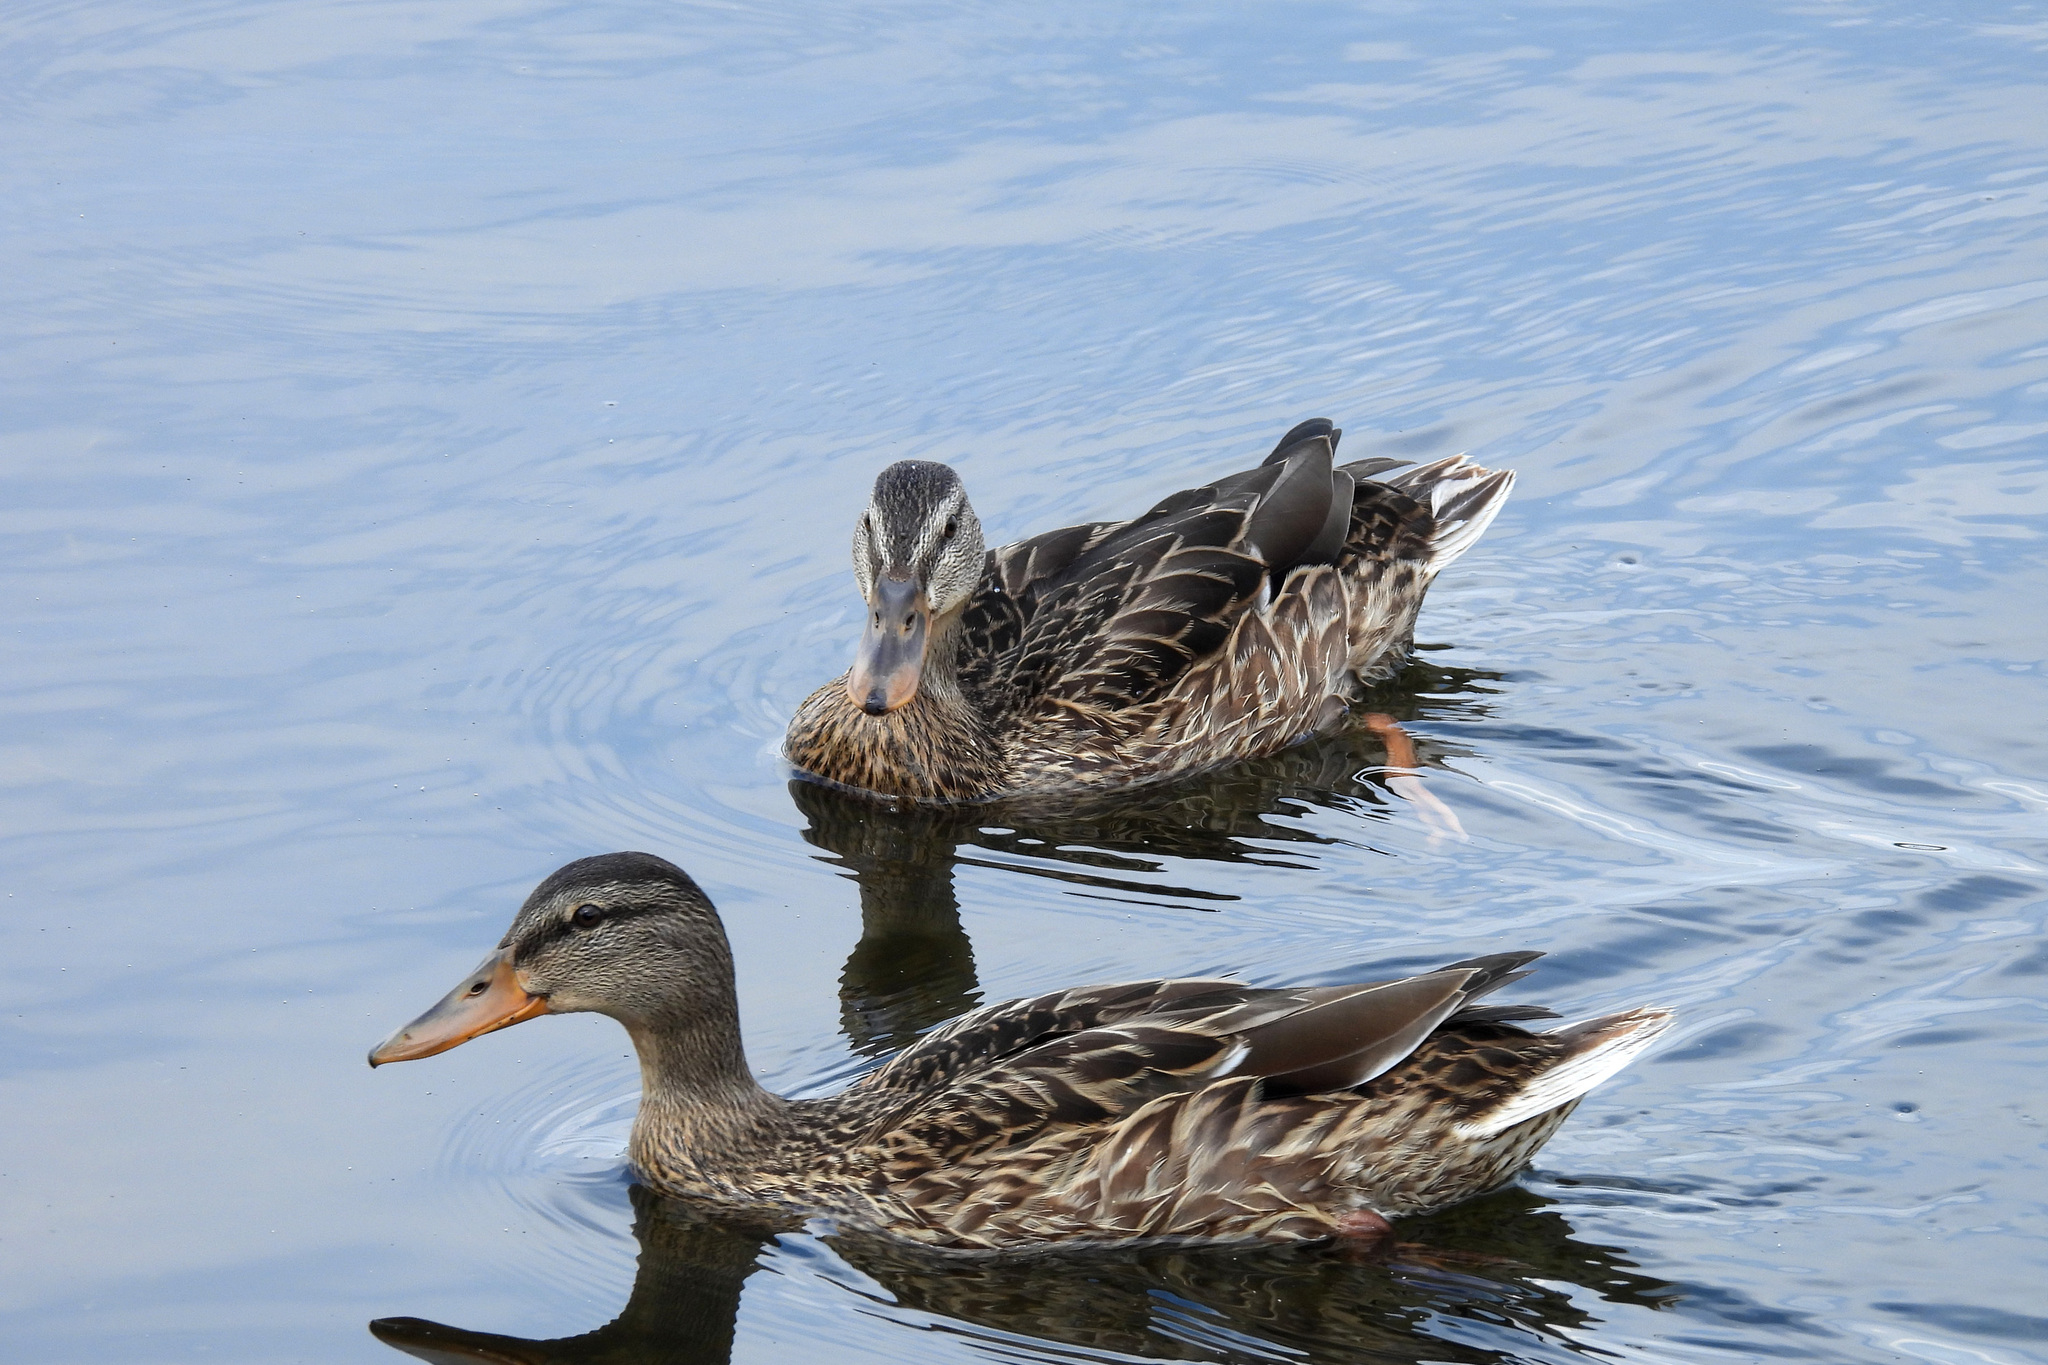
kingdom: Animalia
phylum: Chordata
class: Aves
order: Anseriformes
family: Anatidae
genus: Anas
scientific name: Anas platyrhynchos
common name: Mallard
